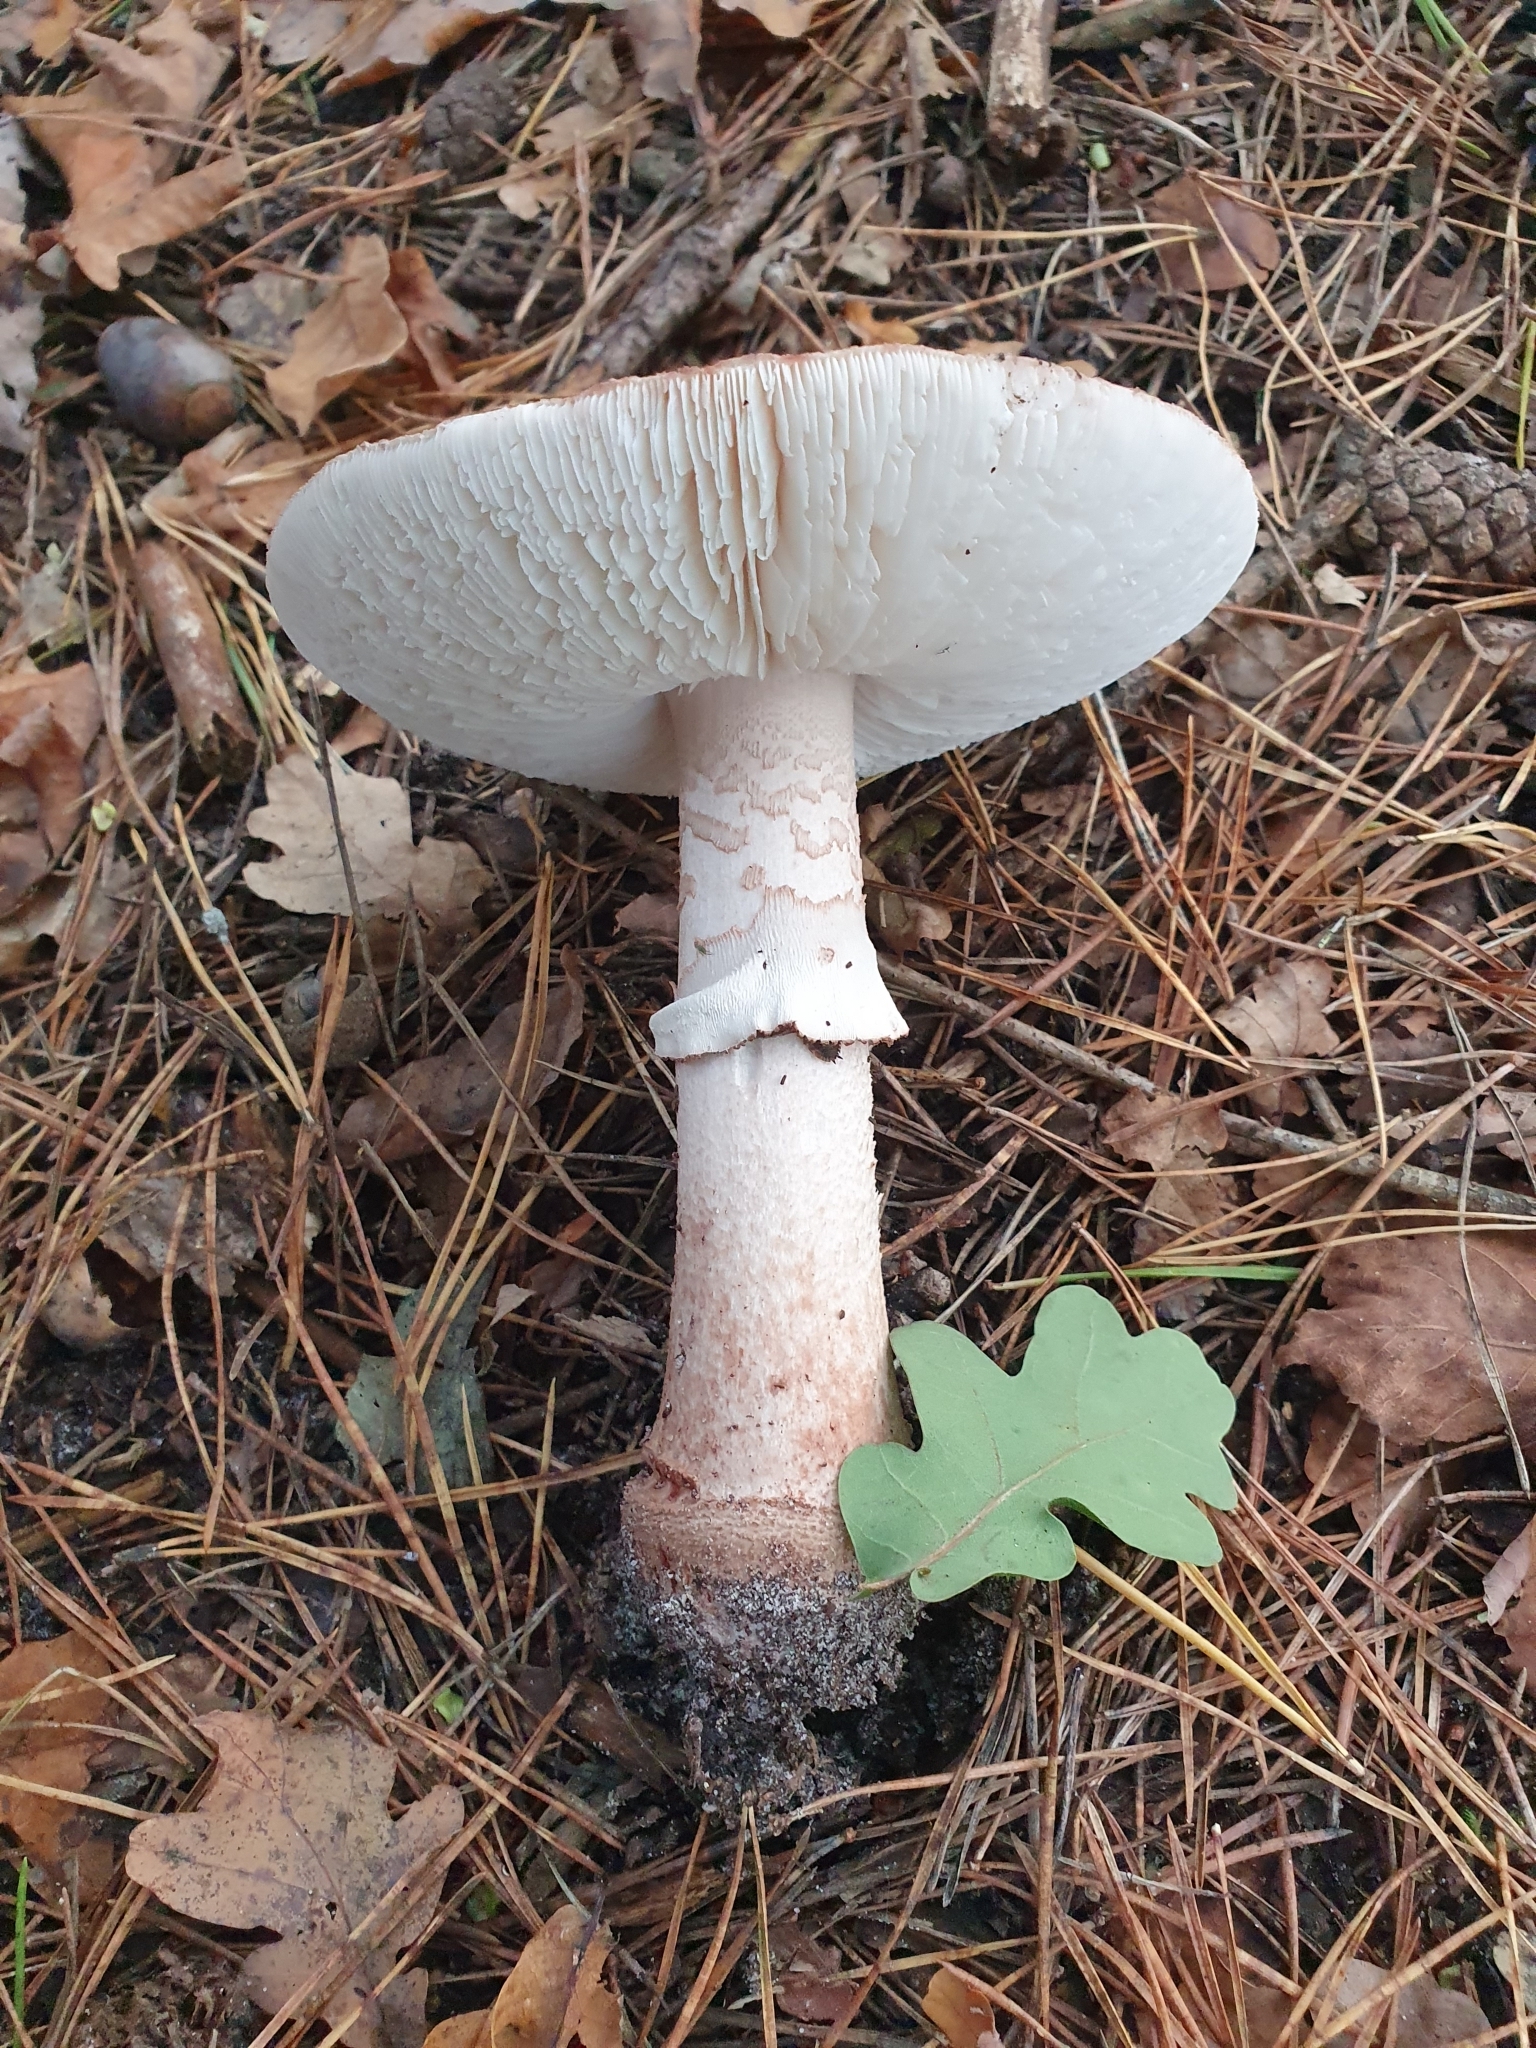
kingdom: Fungi
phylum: Basidiomycota
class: Agaricomycetes
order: Agaricales
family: Amanitaceae
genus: Amanita
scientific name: Amanita rubescens
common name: Blusher
